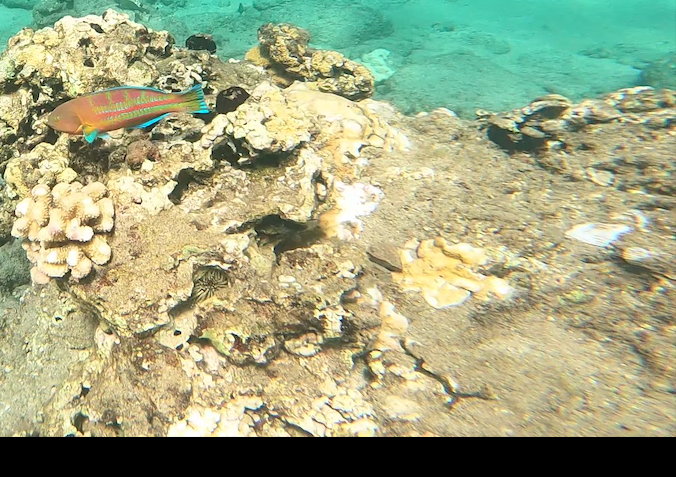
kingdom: Animalia
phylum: Chordata
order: Perciformes
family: Labridae
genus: Thalassoma
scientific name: Thalassoma trilobatum
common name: Christmas wrasse
